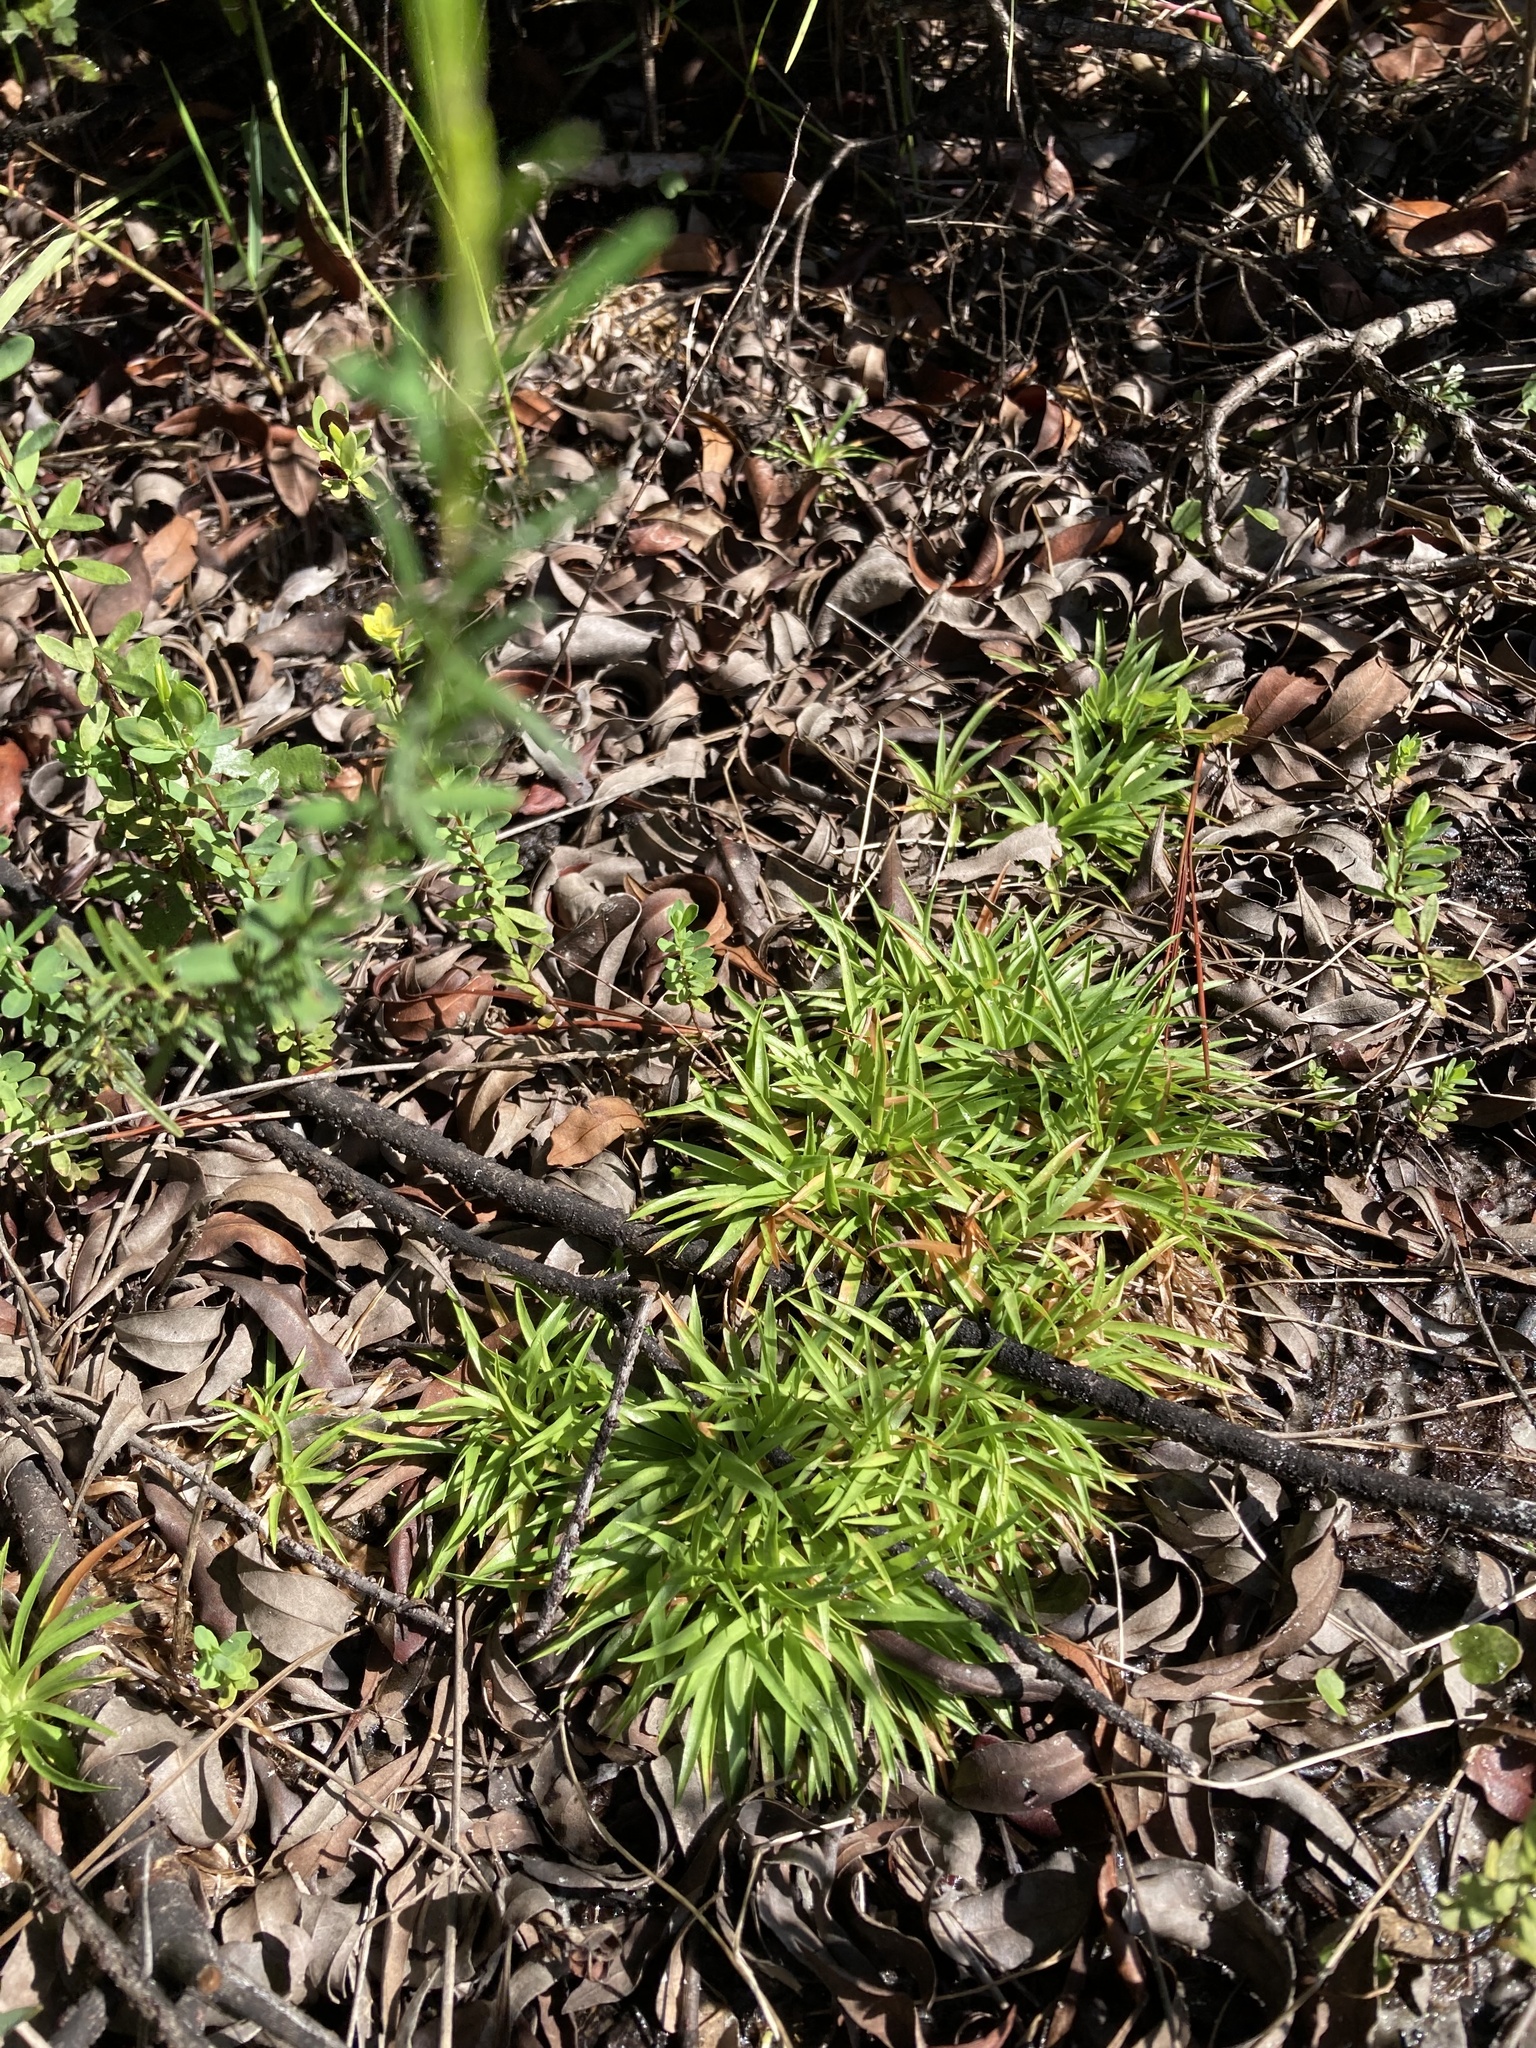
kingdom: Plantae
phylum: Tracheophyta
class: Liliopsida
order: Poales
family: Eriocaulaceae
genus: Paepalanthus
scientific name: Paepalanthus anceps
